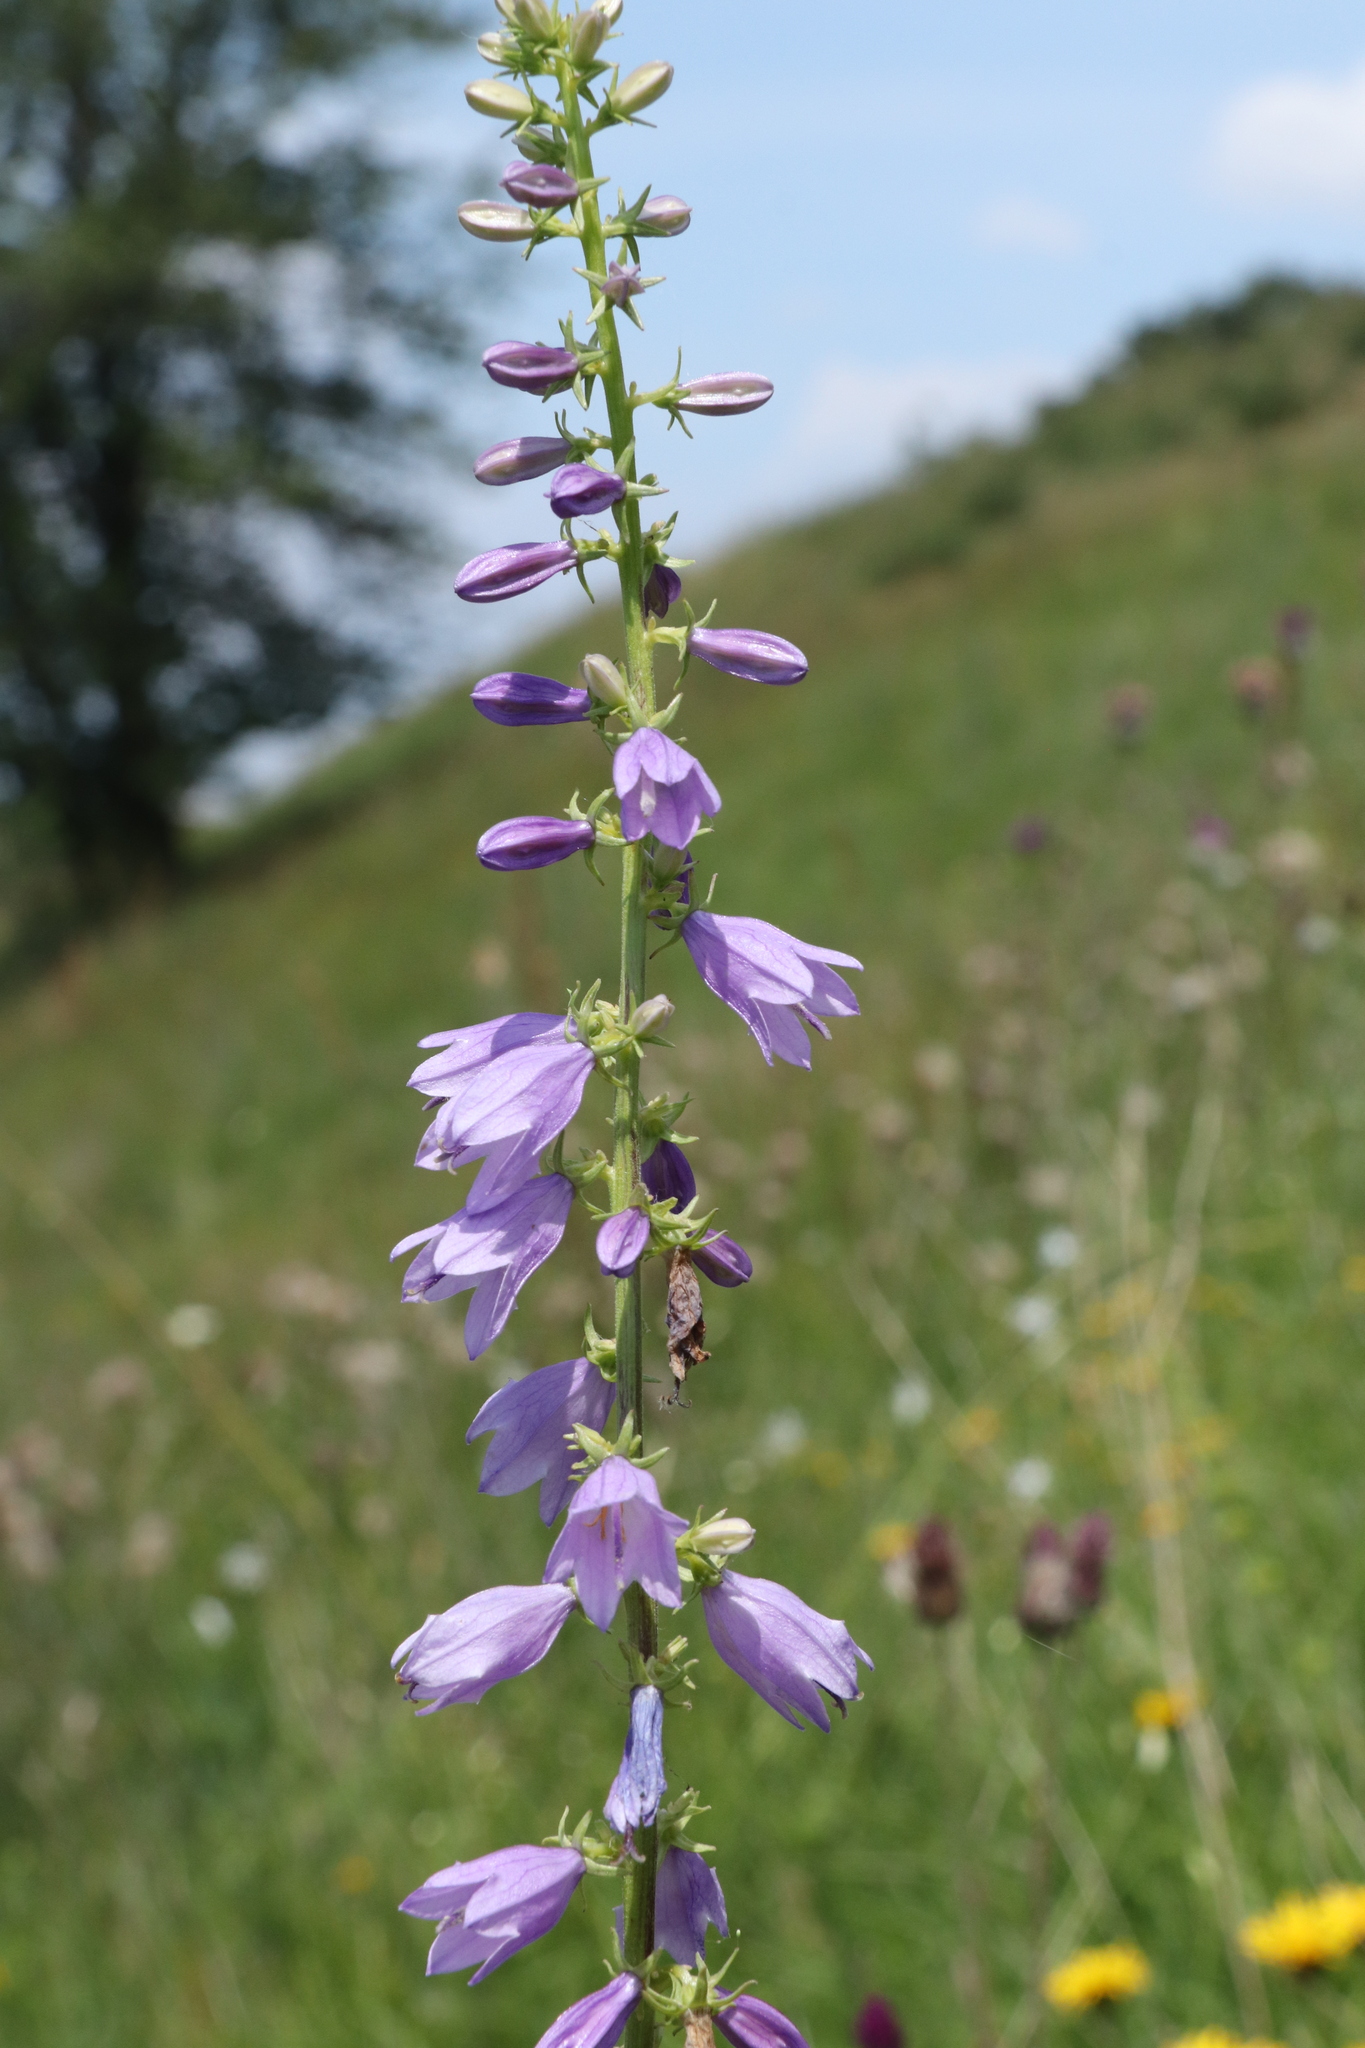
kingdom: Plantae
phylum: Tracheophyta
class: Magnoliopsida
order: Asterales
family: Campanulaceae
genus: Campanula
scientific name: Campanula bononiensis
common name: Pale bellflower
